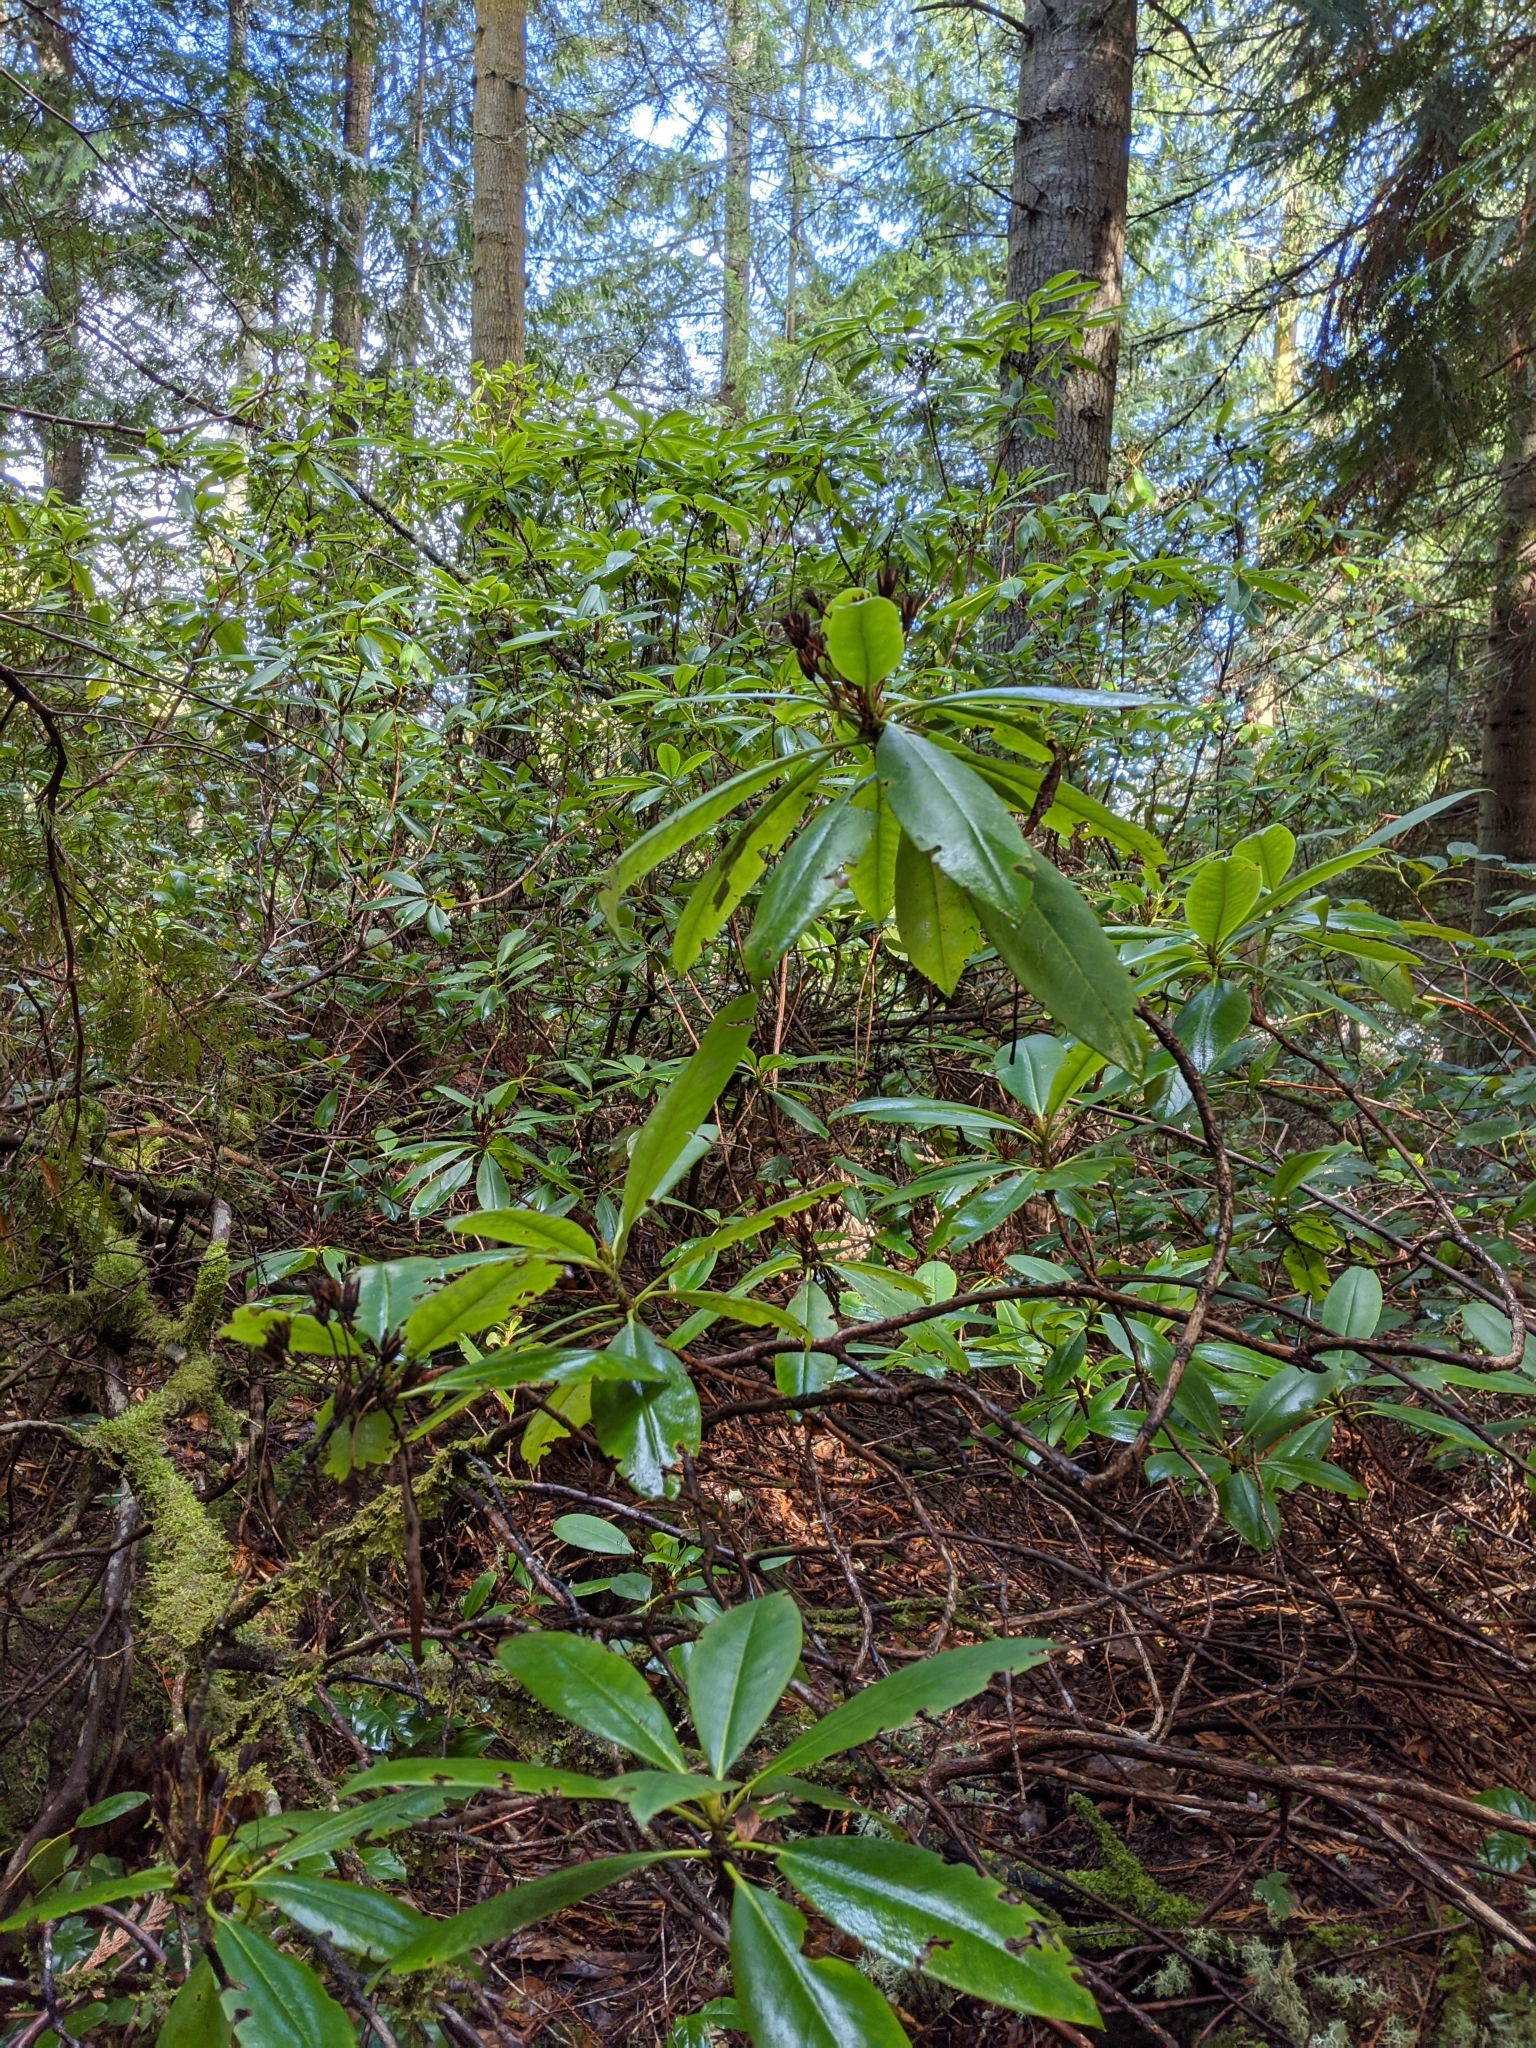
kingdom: Plantae
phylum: Tracheophyta
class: Magnoliopsida
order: Ericales
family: Ericaceae
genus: Rhododendron
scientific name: Rhododendron macrophyllum
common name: California rose bay
